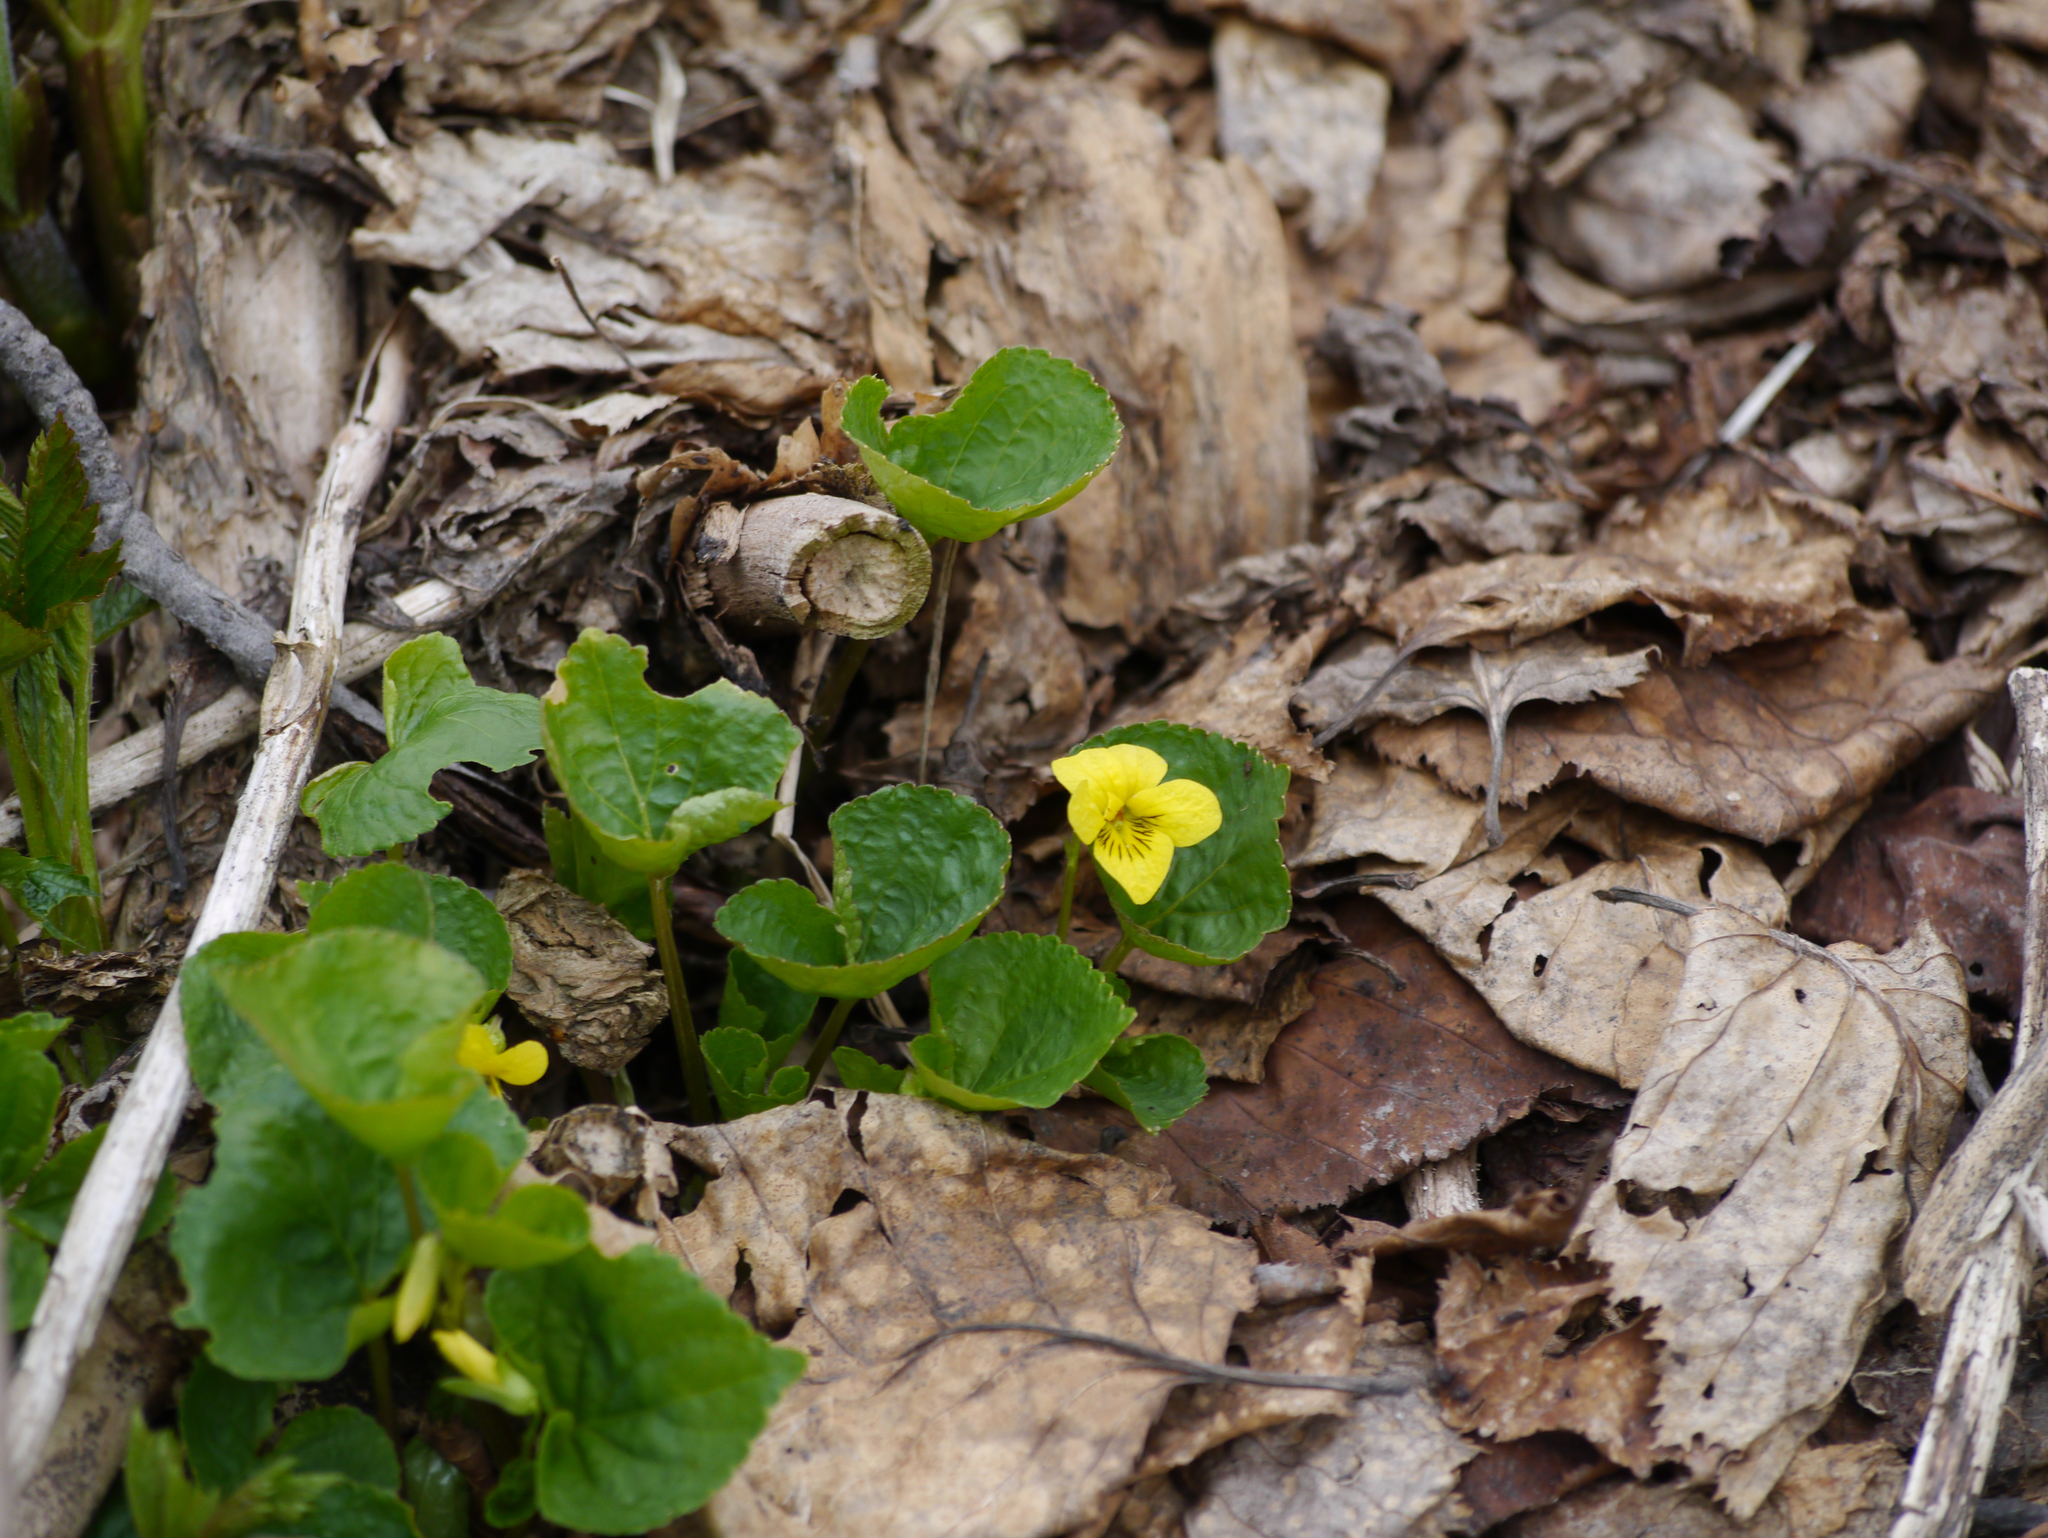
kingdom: Plantae
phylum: Tracheophyta
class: Magnoliopsida
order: Malpighiales
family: Violaceae
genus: Viola
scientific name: Viola glabella
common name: Stream violet
